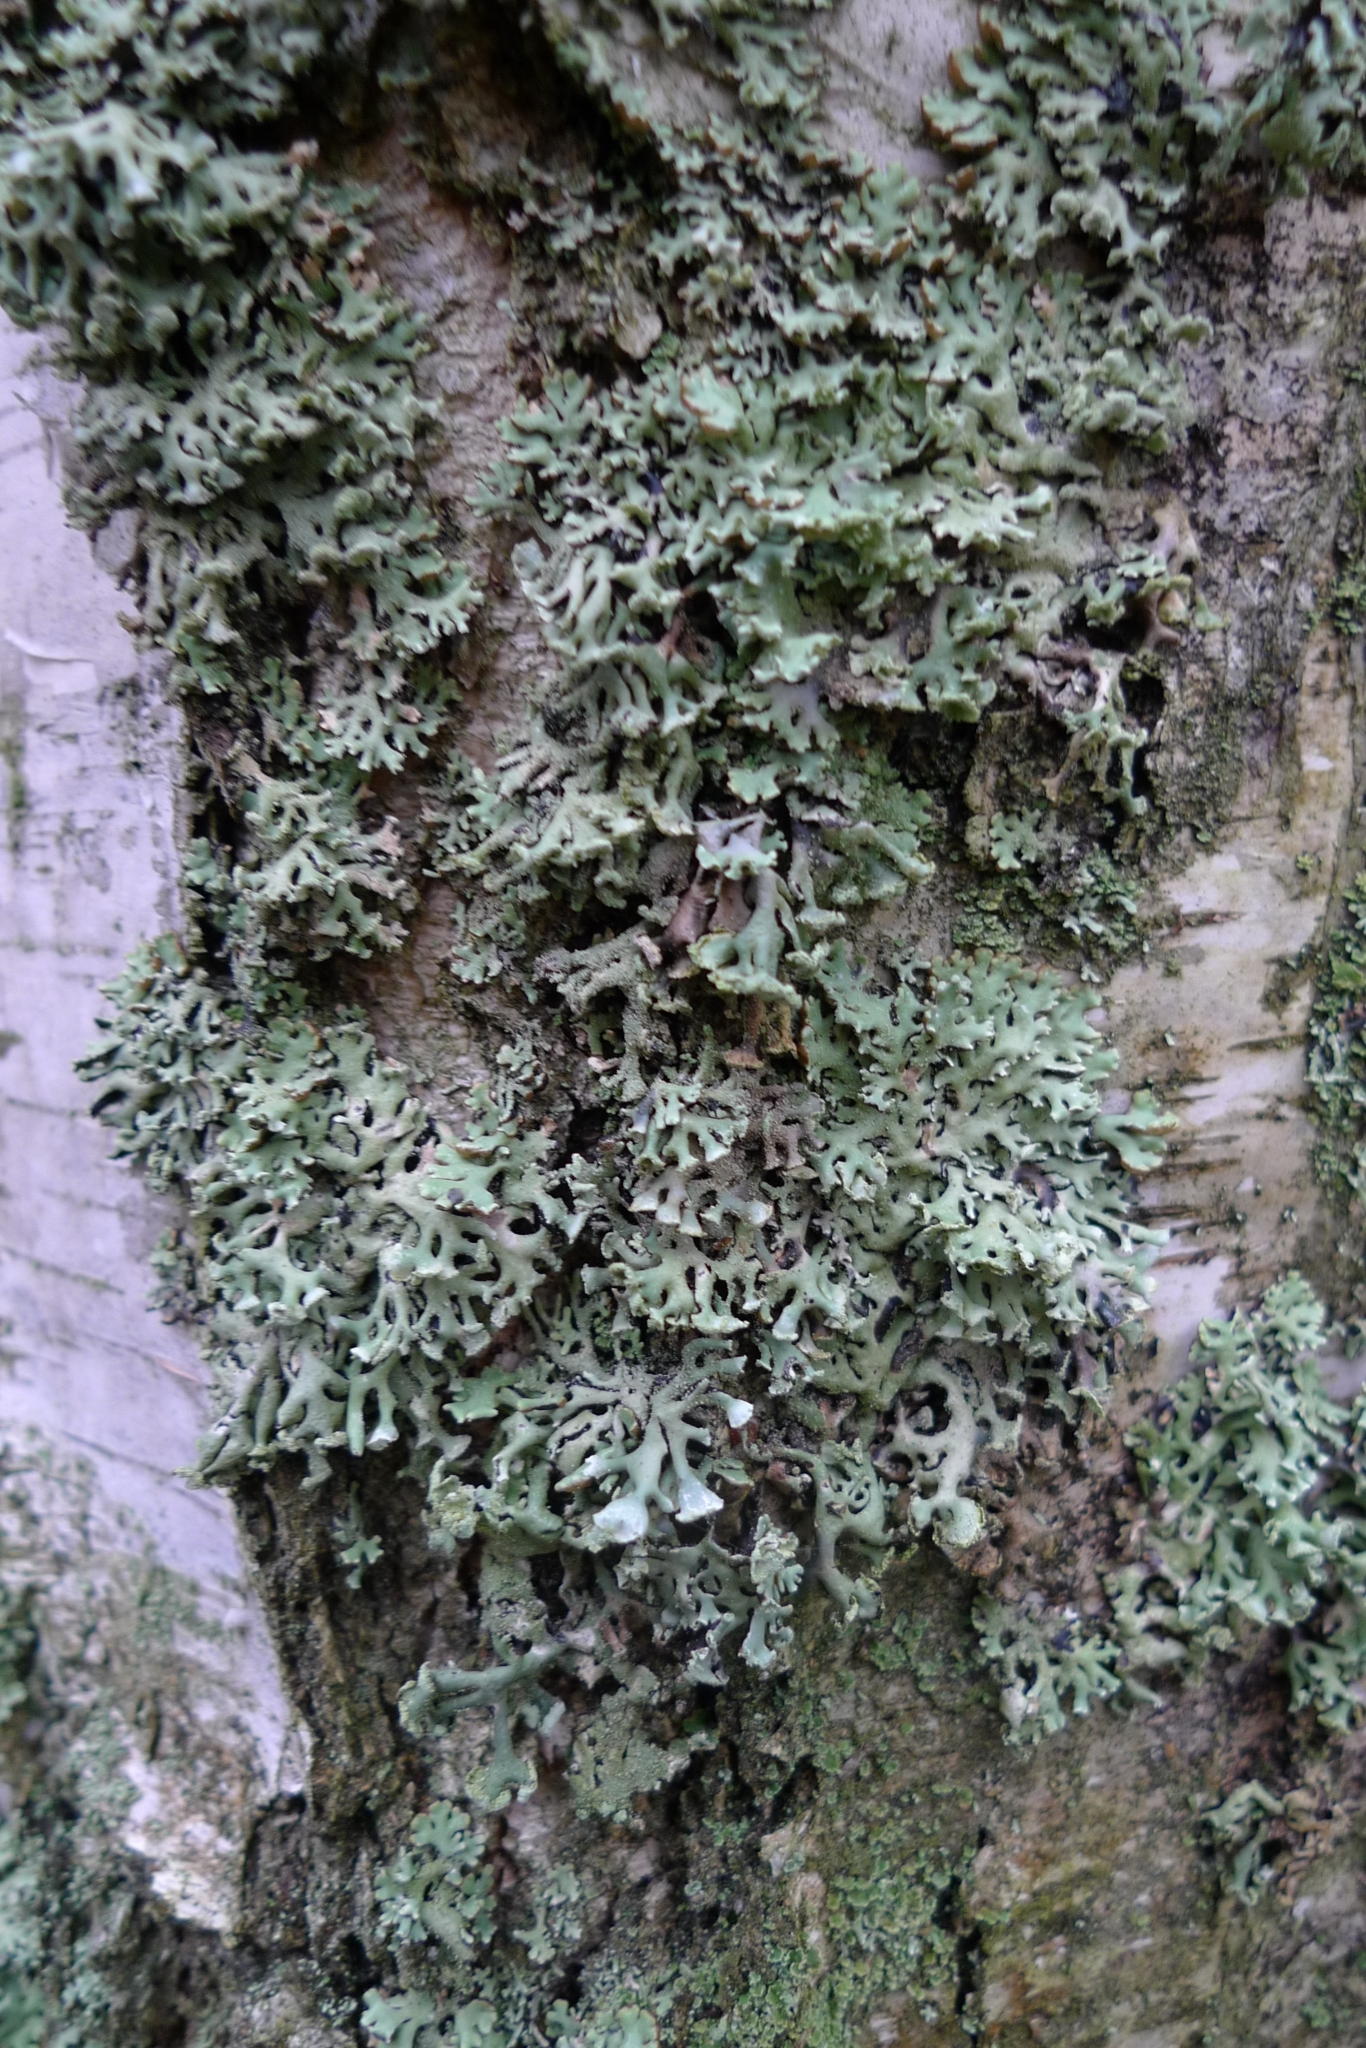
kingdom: Fungi
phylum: Ascomycota
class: Lecanoromycetes
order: Lecanorales
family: Parmeliaceae
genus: Hypogymnia
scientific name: Hypogymnia physodes
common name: Dark crottle
